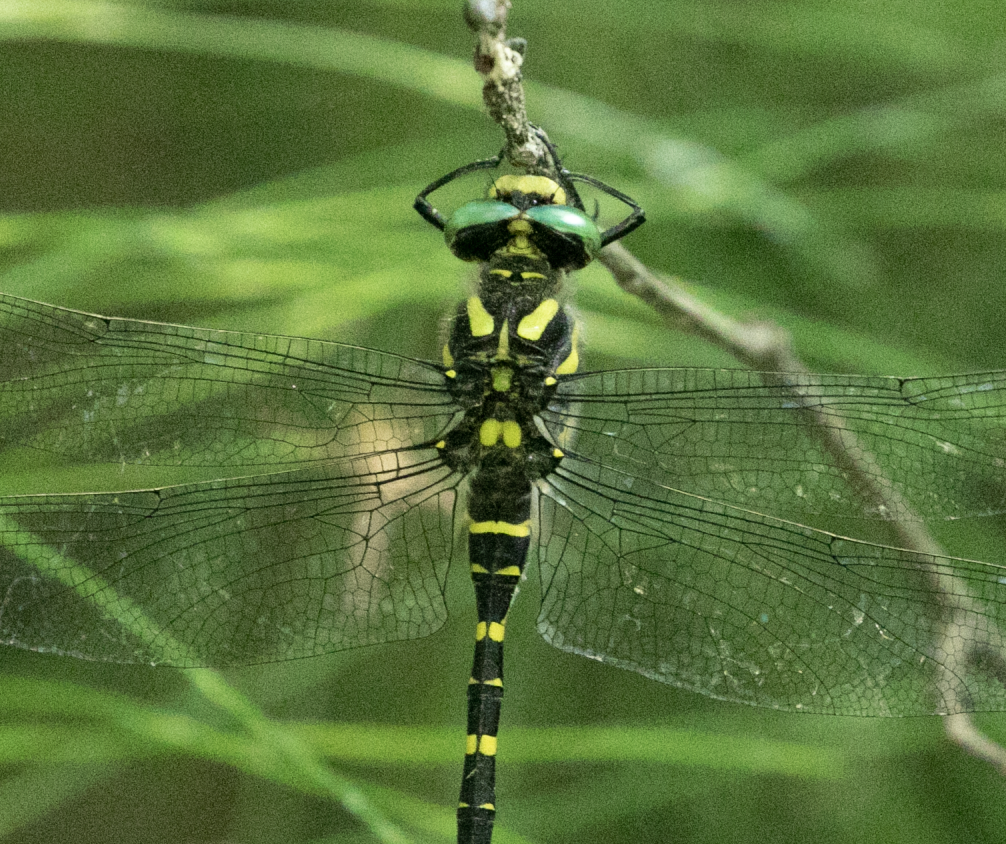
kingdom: Animalia
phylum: Arthropoda
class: Insecta
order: Odonata
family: Cordulegastridae
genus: Cordulegaster
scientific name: Cordulegaster boltonii
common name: Golden-ringed dragonfly
